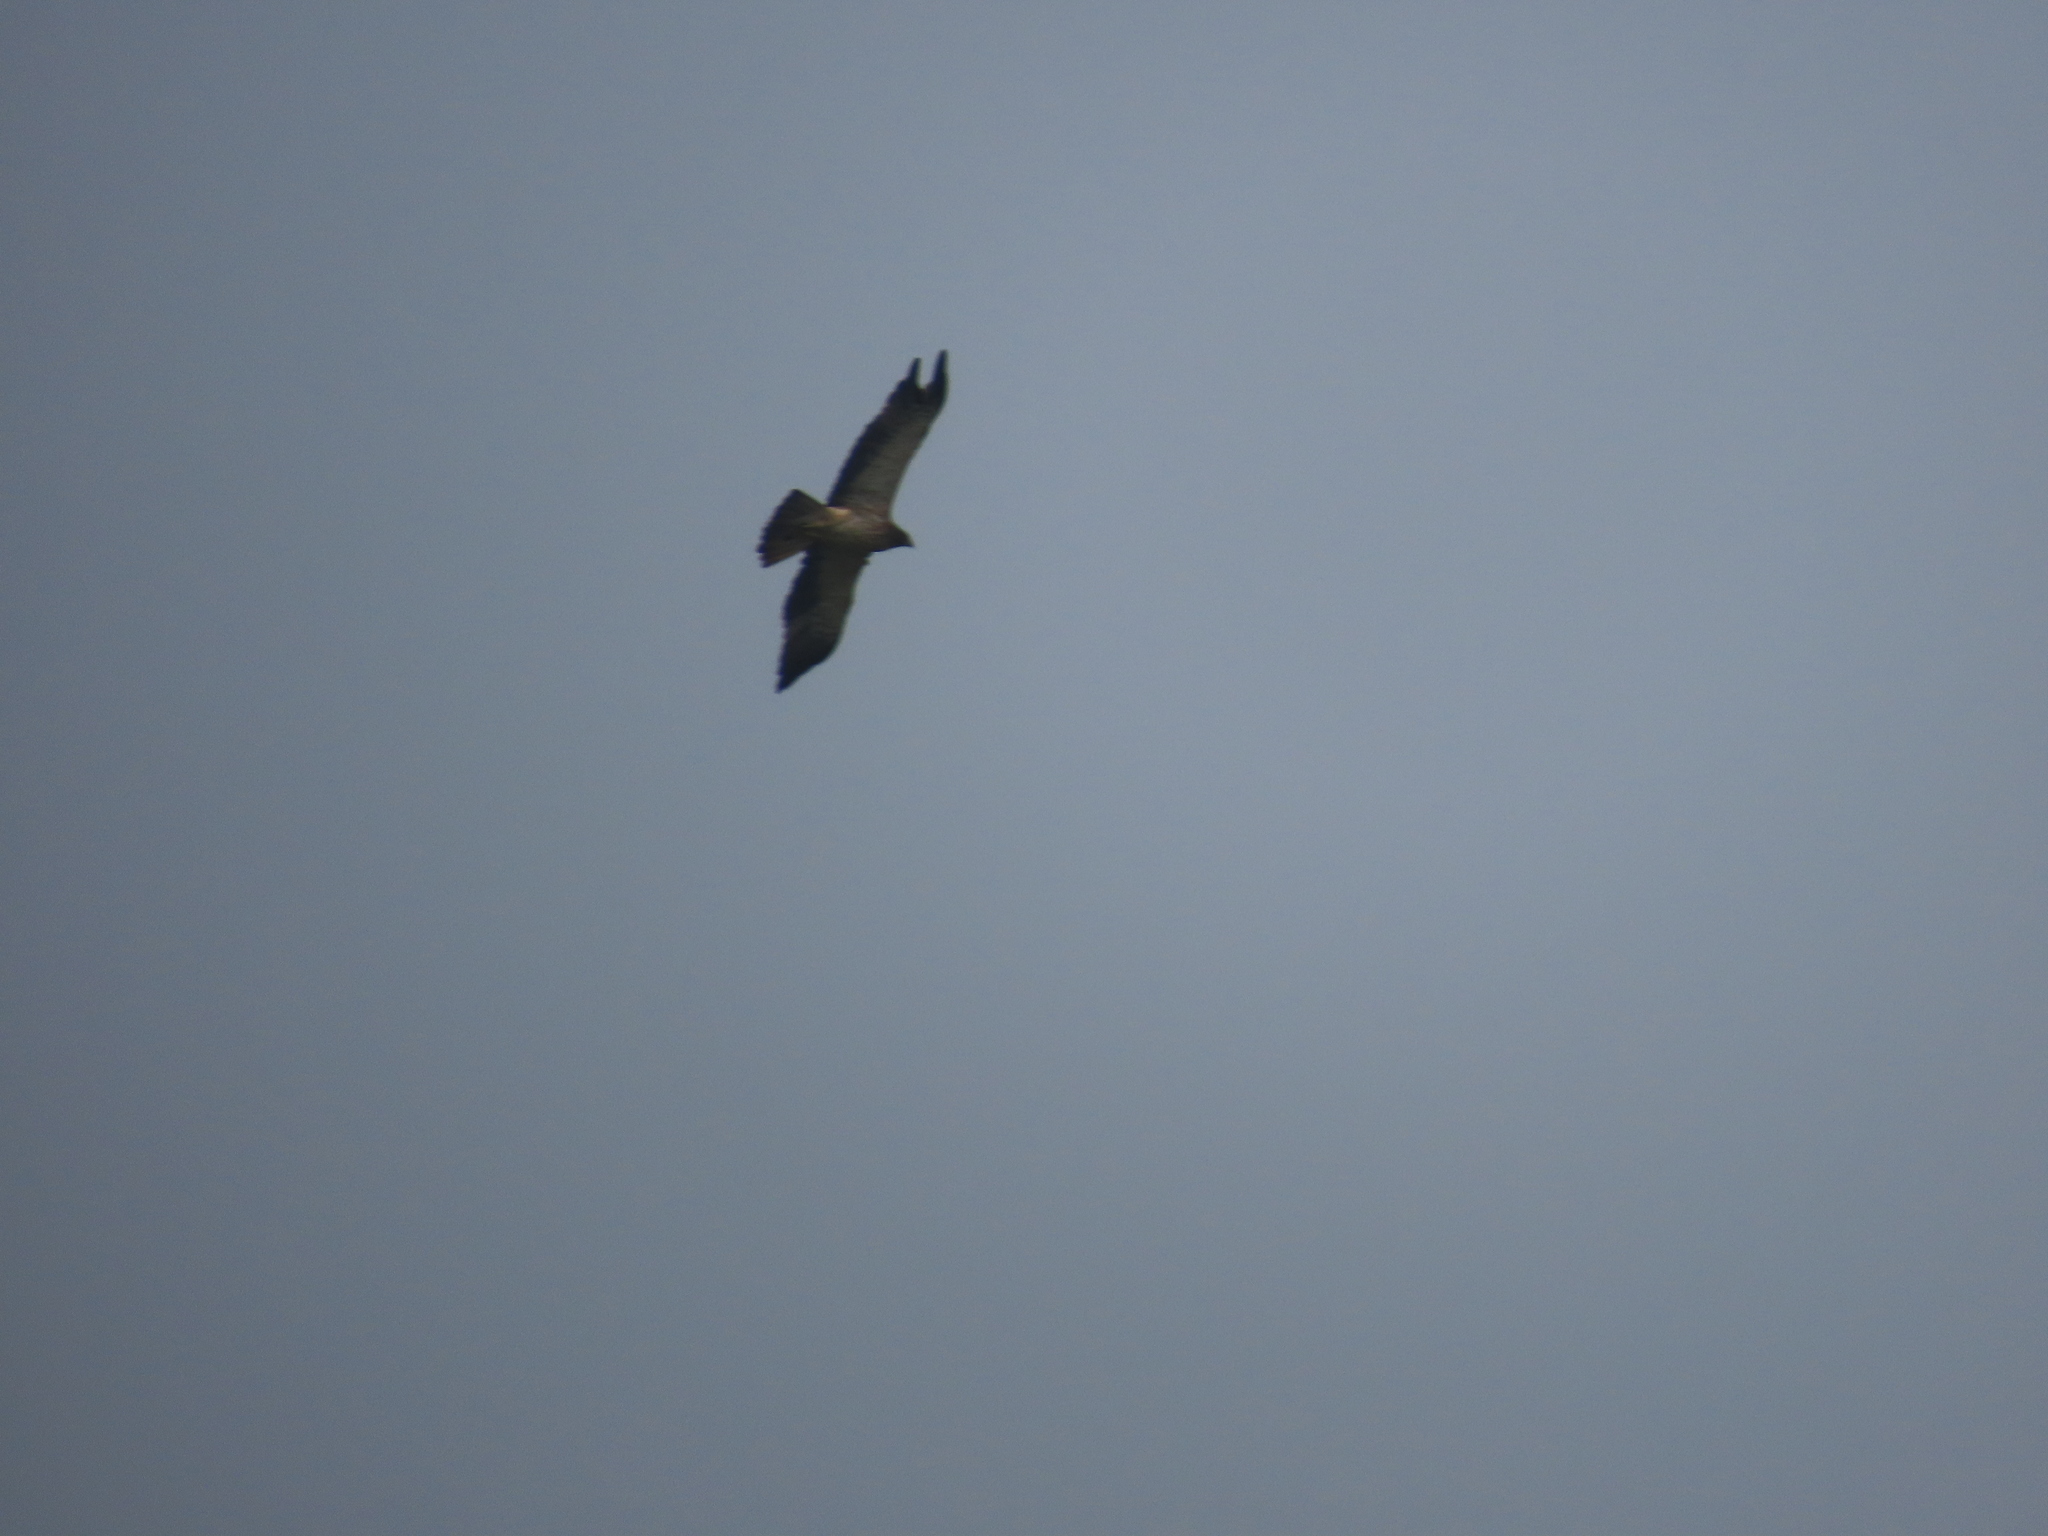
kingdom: Animalia
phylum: Chordata
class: Aves
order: Accipitriformes
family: Accipitridae
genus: Hieraaetus
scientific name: Hieraaetus pennatus
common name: Booted eagle
